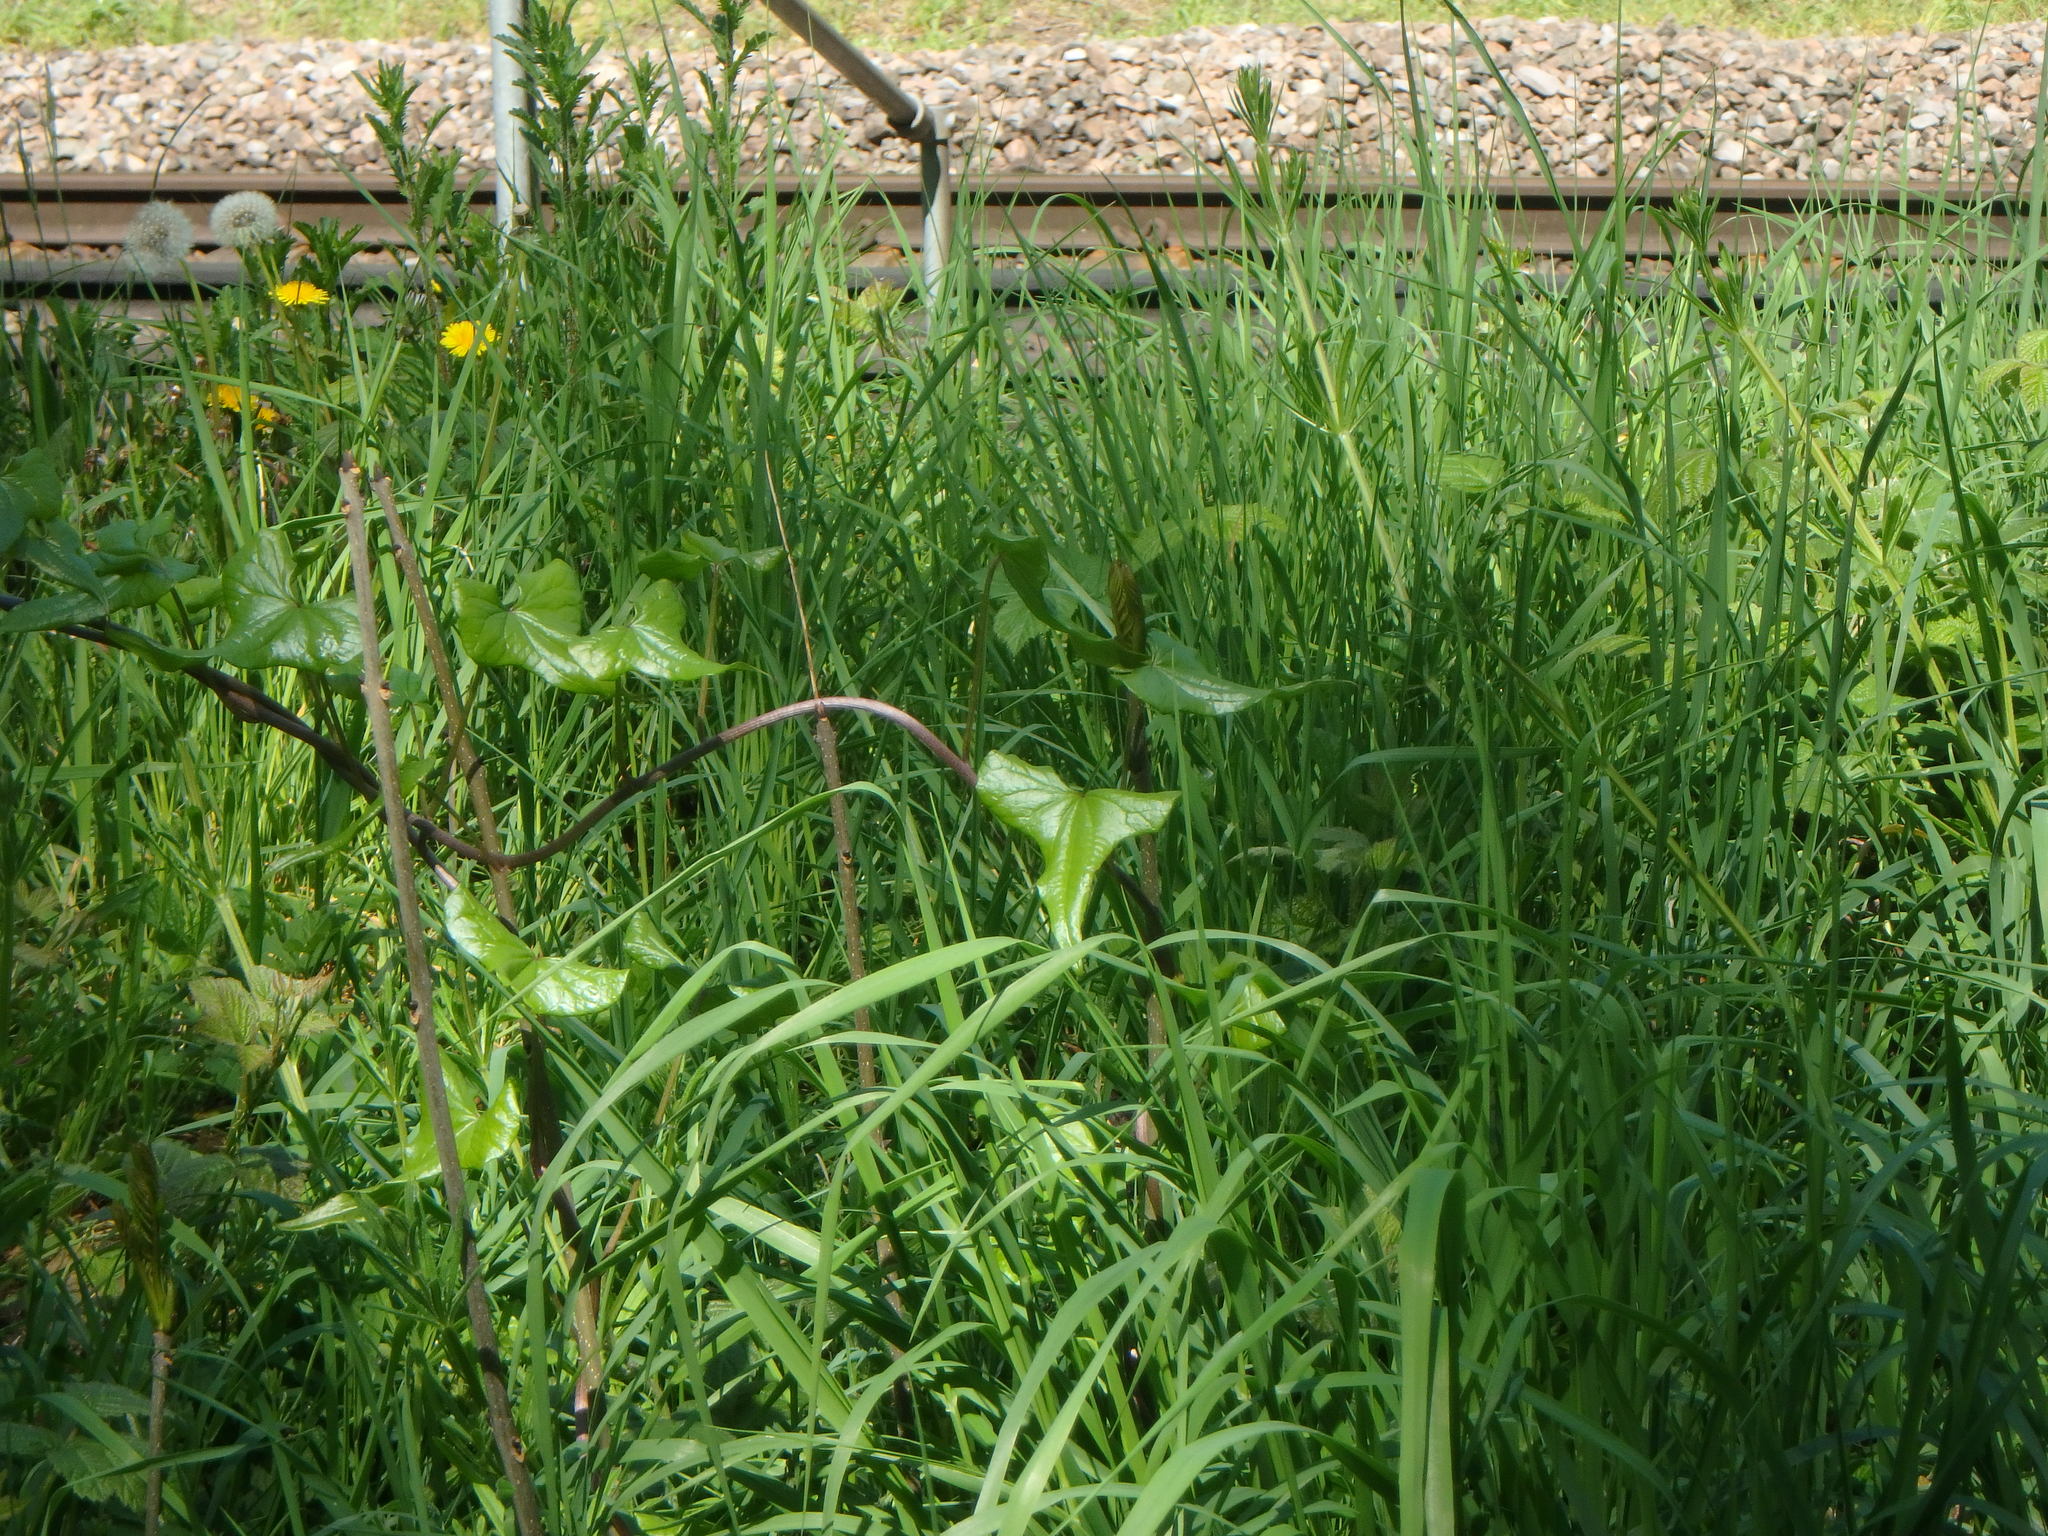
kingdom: Plantae
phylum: Tracheophyta
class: Liliopsida
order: Dioscoreales
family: Dioscoreaceae
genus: Dioscorea
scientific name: Dioscorea communis
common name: Black-bindweed
